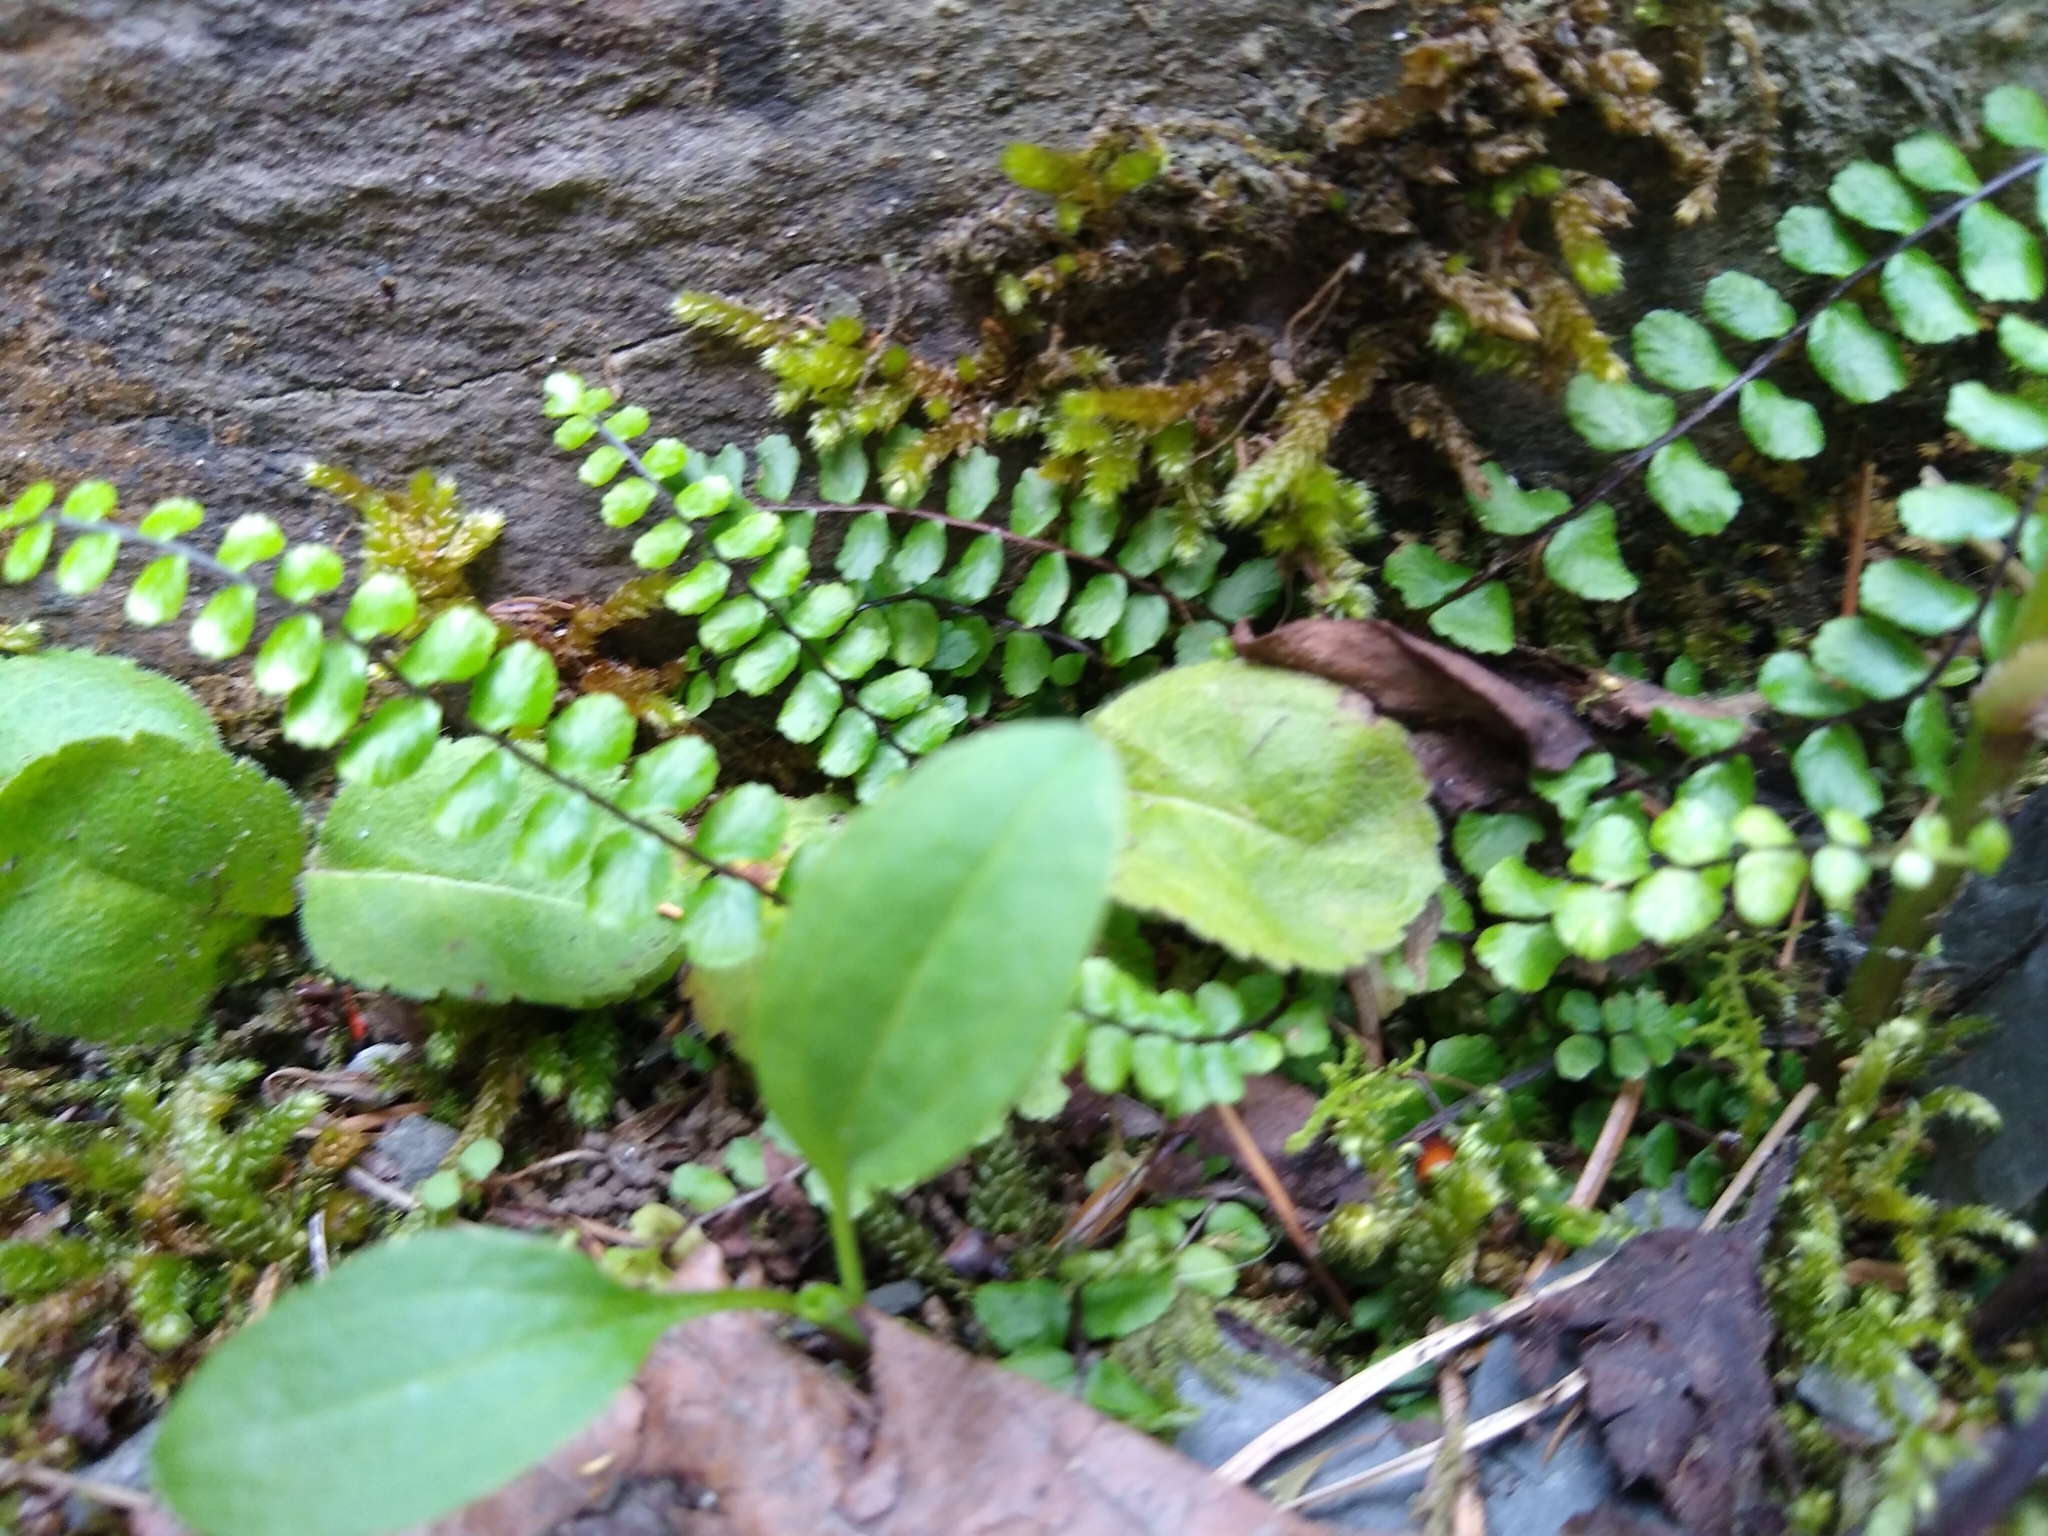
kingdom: Plantae
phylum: Tracheophyta
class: Polypodiopsida
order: Polypodiales
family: Aspleniaceae
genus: Asplenium
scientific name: Asplenium trichomanes
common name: Maidenhair spleenwort
